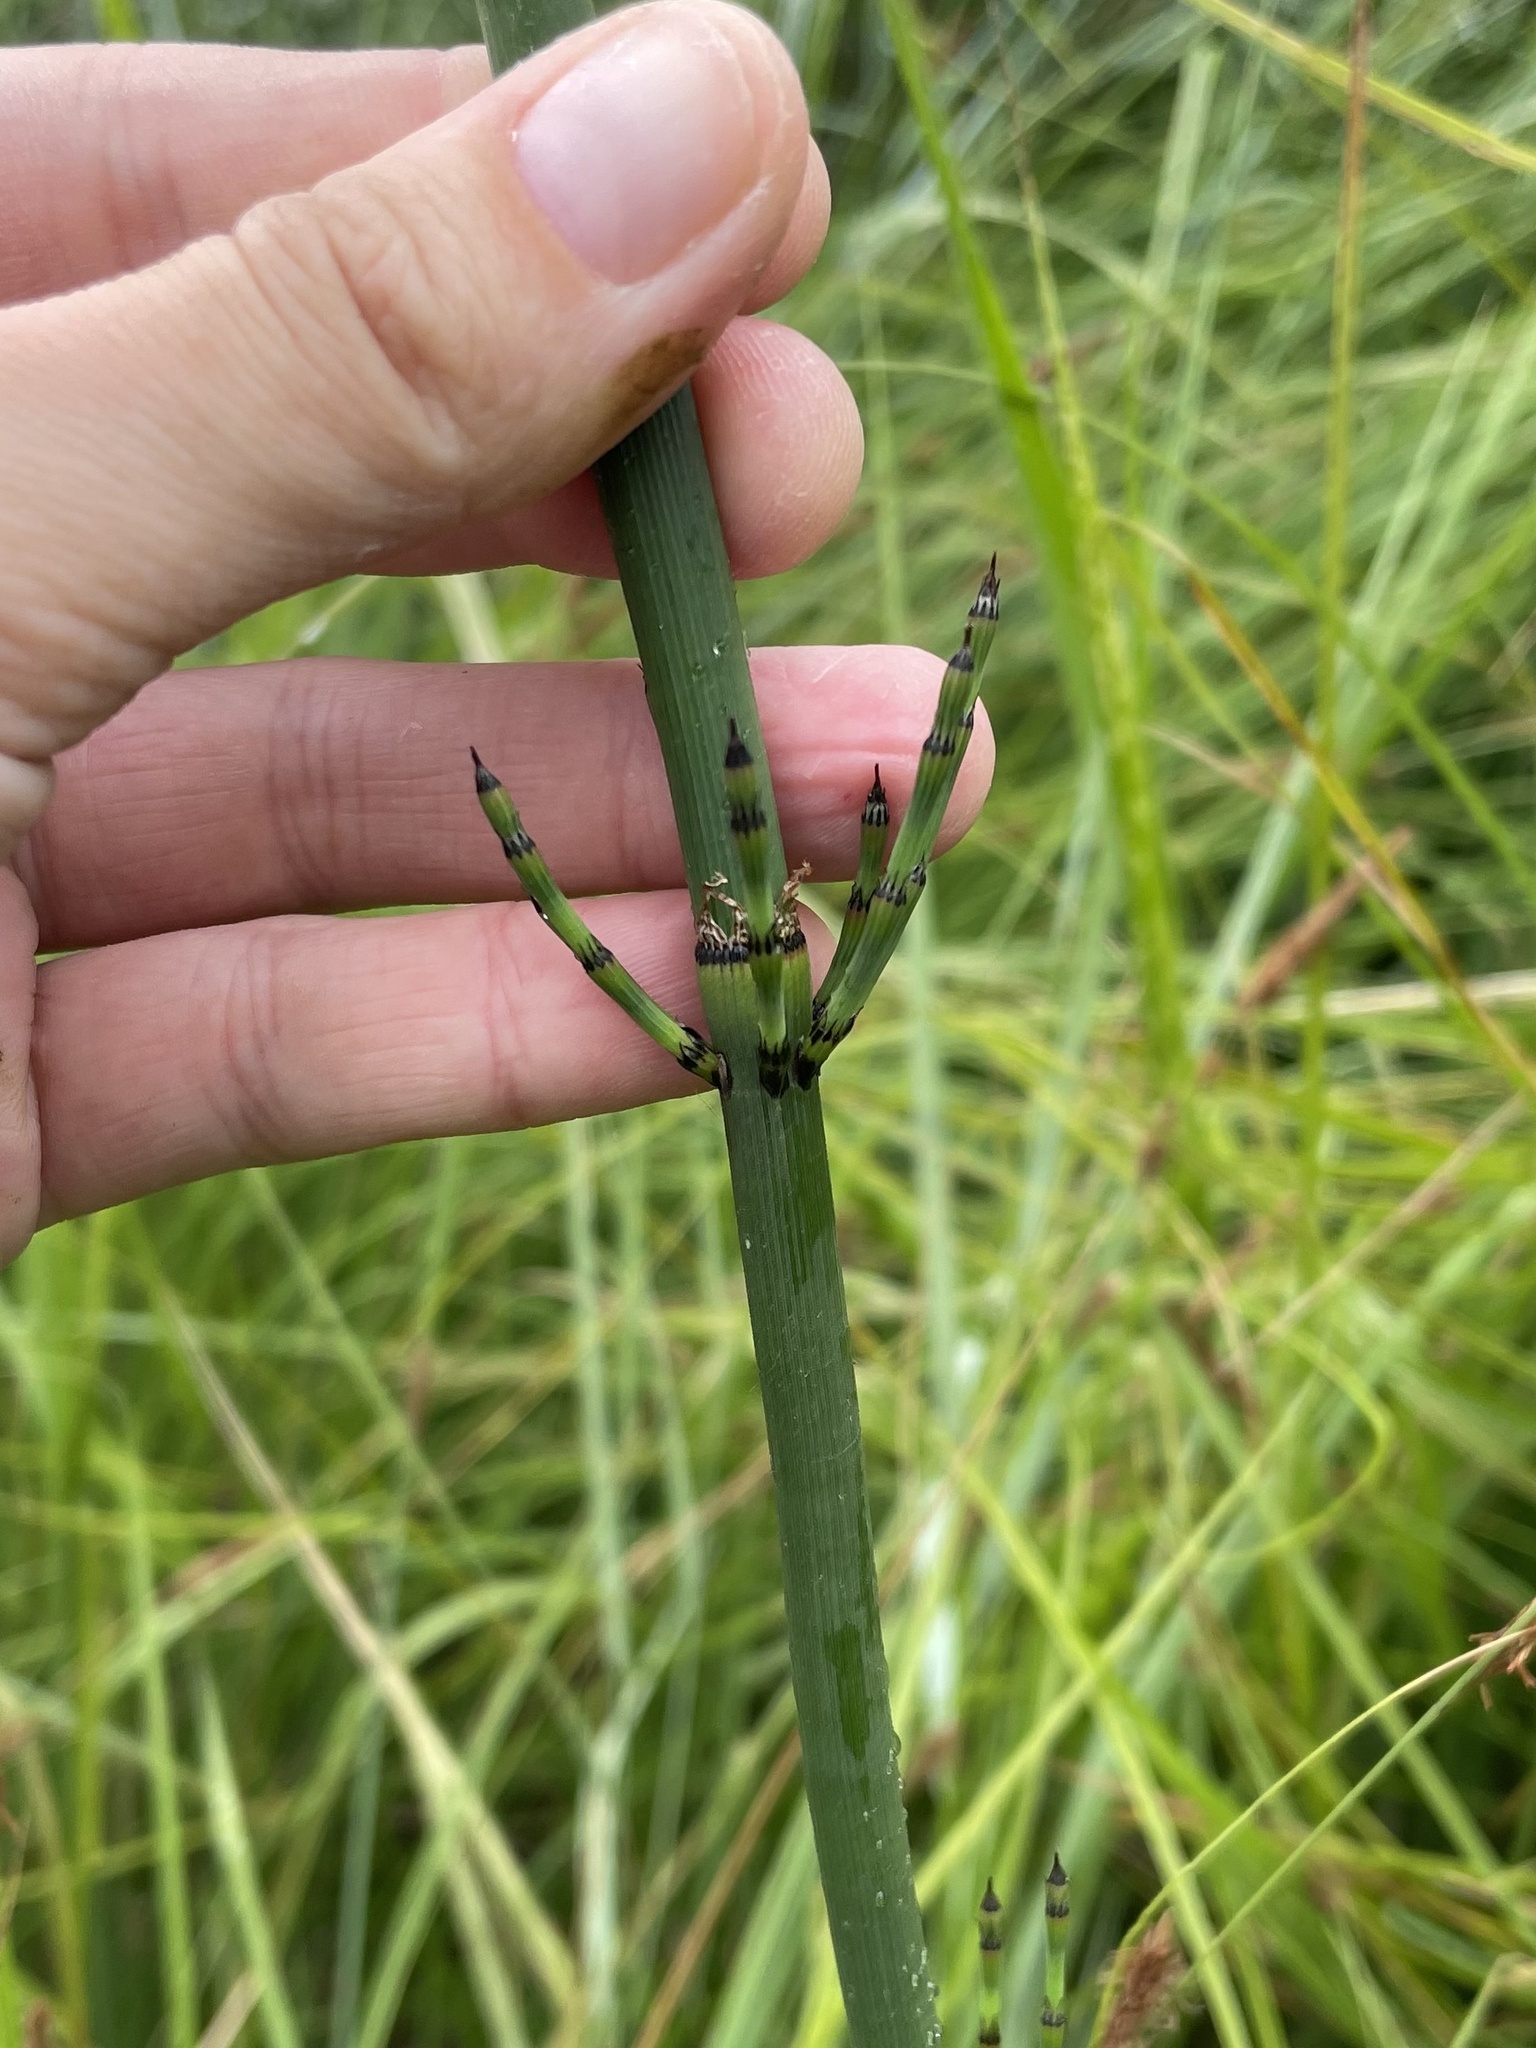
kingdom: Plantae
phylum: Tracheophyta
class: Polypodiopsida
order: Equisetales
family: Equisetaceae
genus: Equisetum
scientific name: Equisetum praealtum
